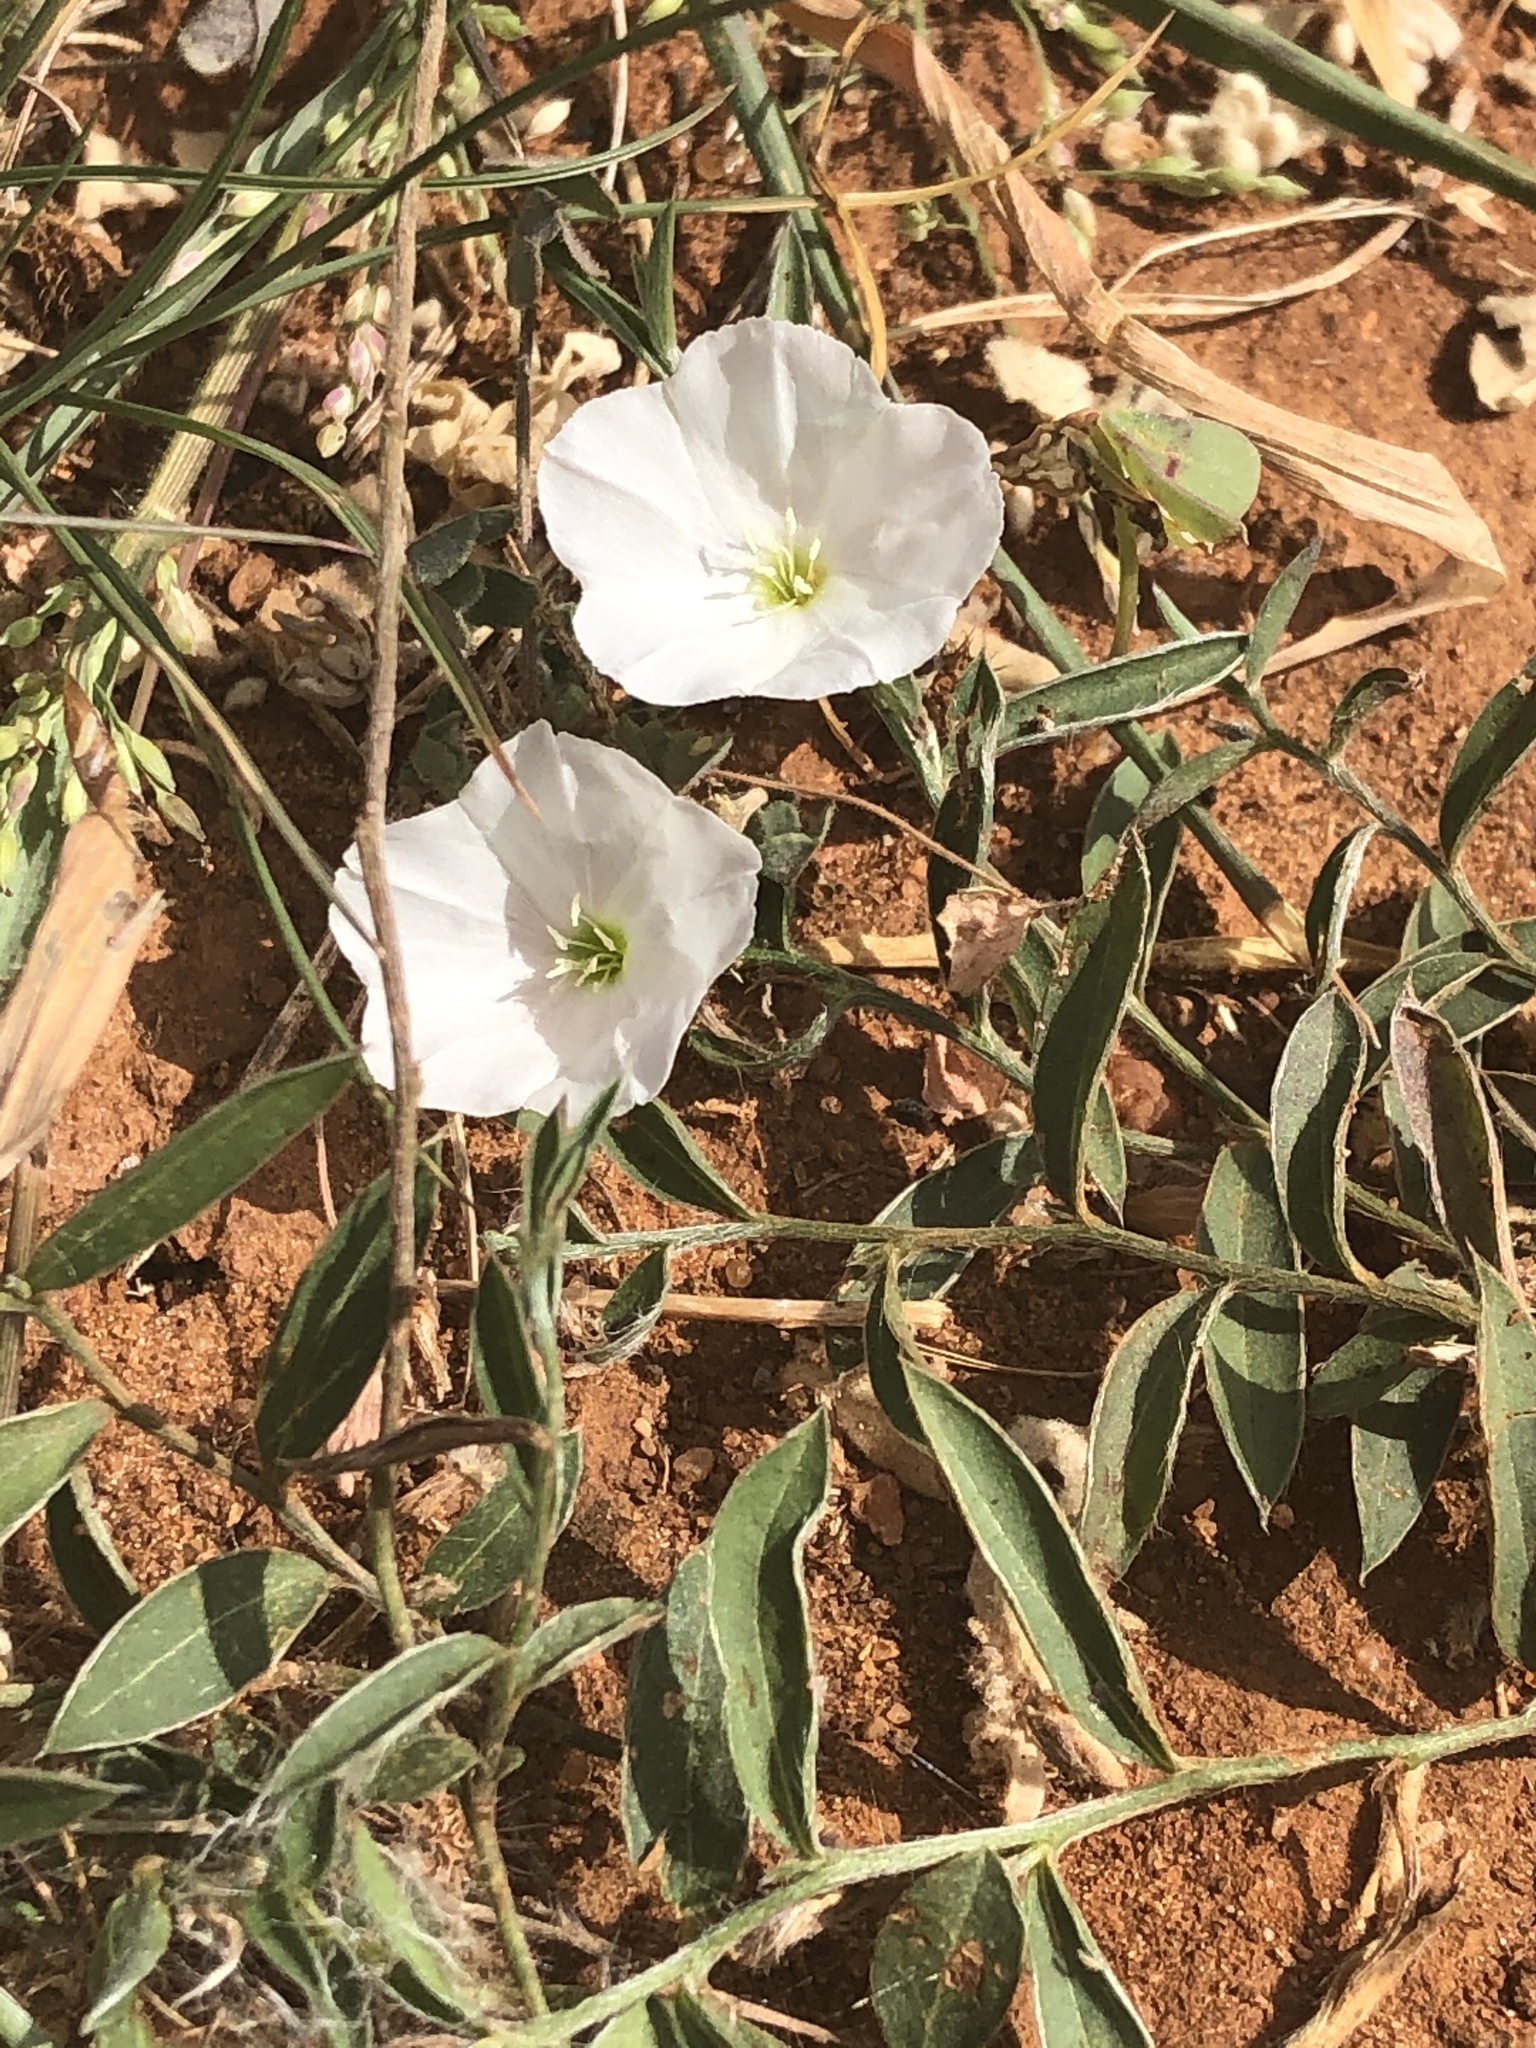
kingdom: Plantae
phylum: Tracheophyta
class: Magnoliopsida
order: Solanales
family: Convolvulaceae
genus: Evolvulus
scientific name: Evolvulus sericeus
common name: Blue dots
